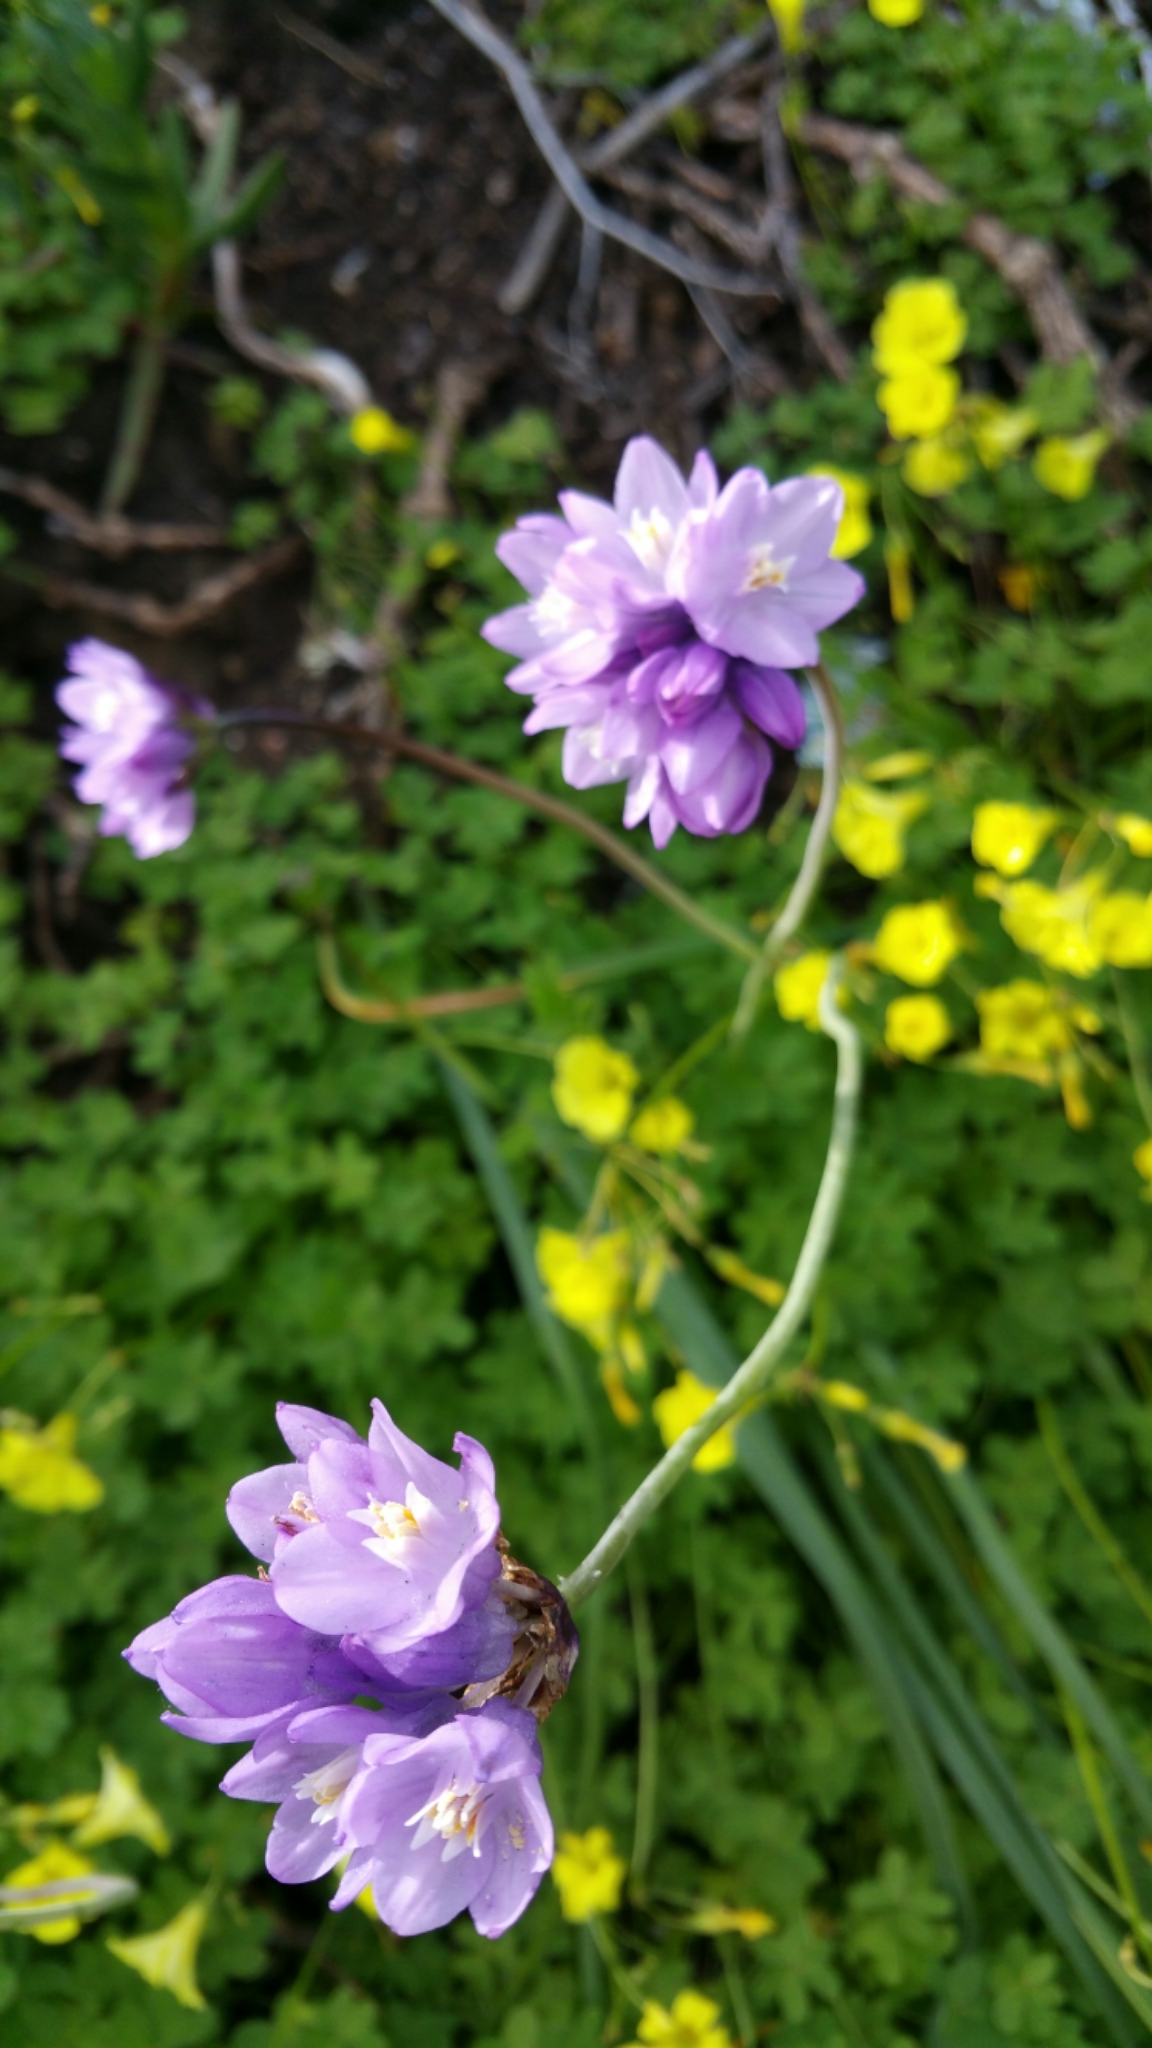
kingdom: Plantae
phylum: Tracheophyta
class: Liliopsida
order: Asparagales
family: Asparagaceae
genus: Dipterostemon
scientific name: Dipterostemon capitatus
